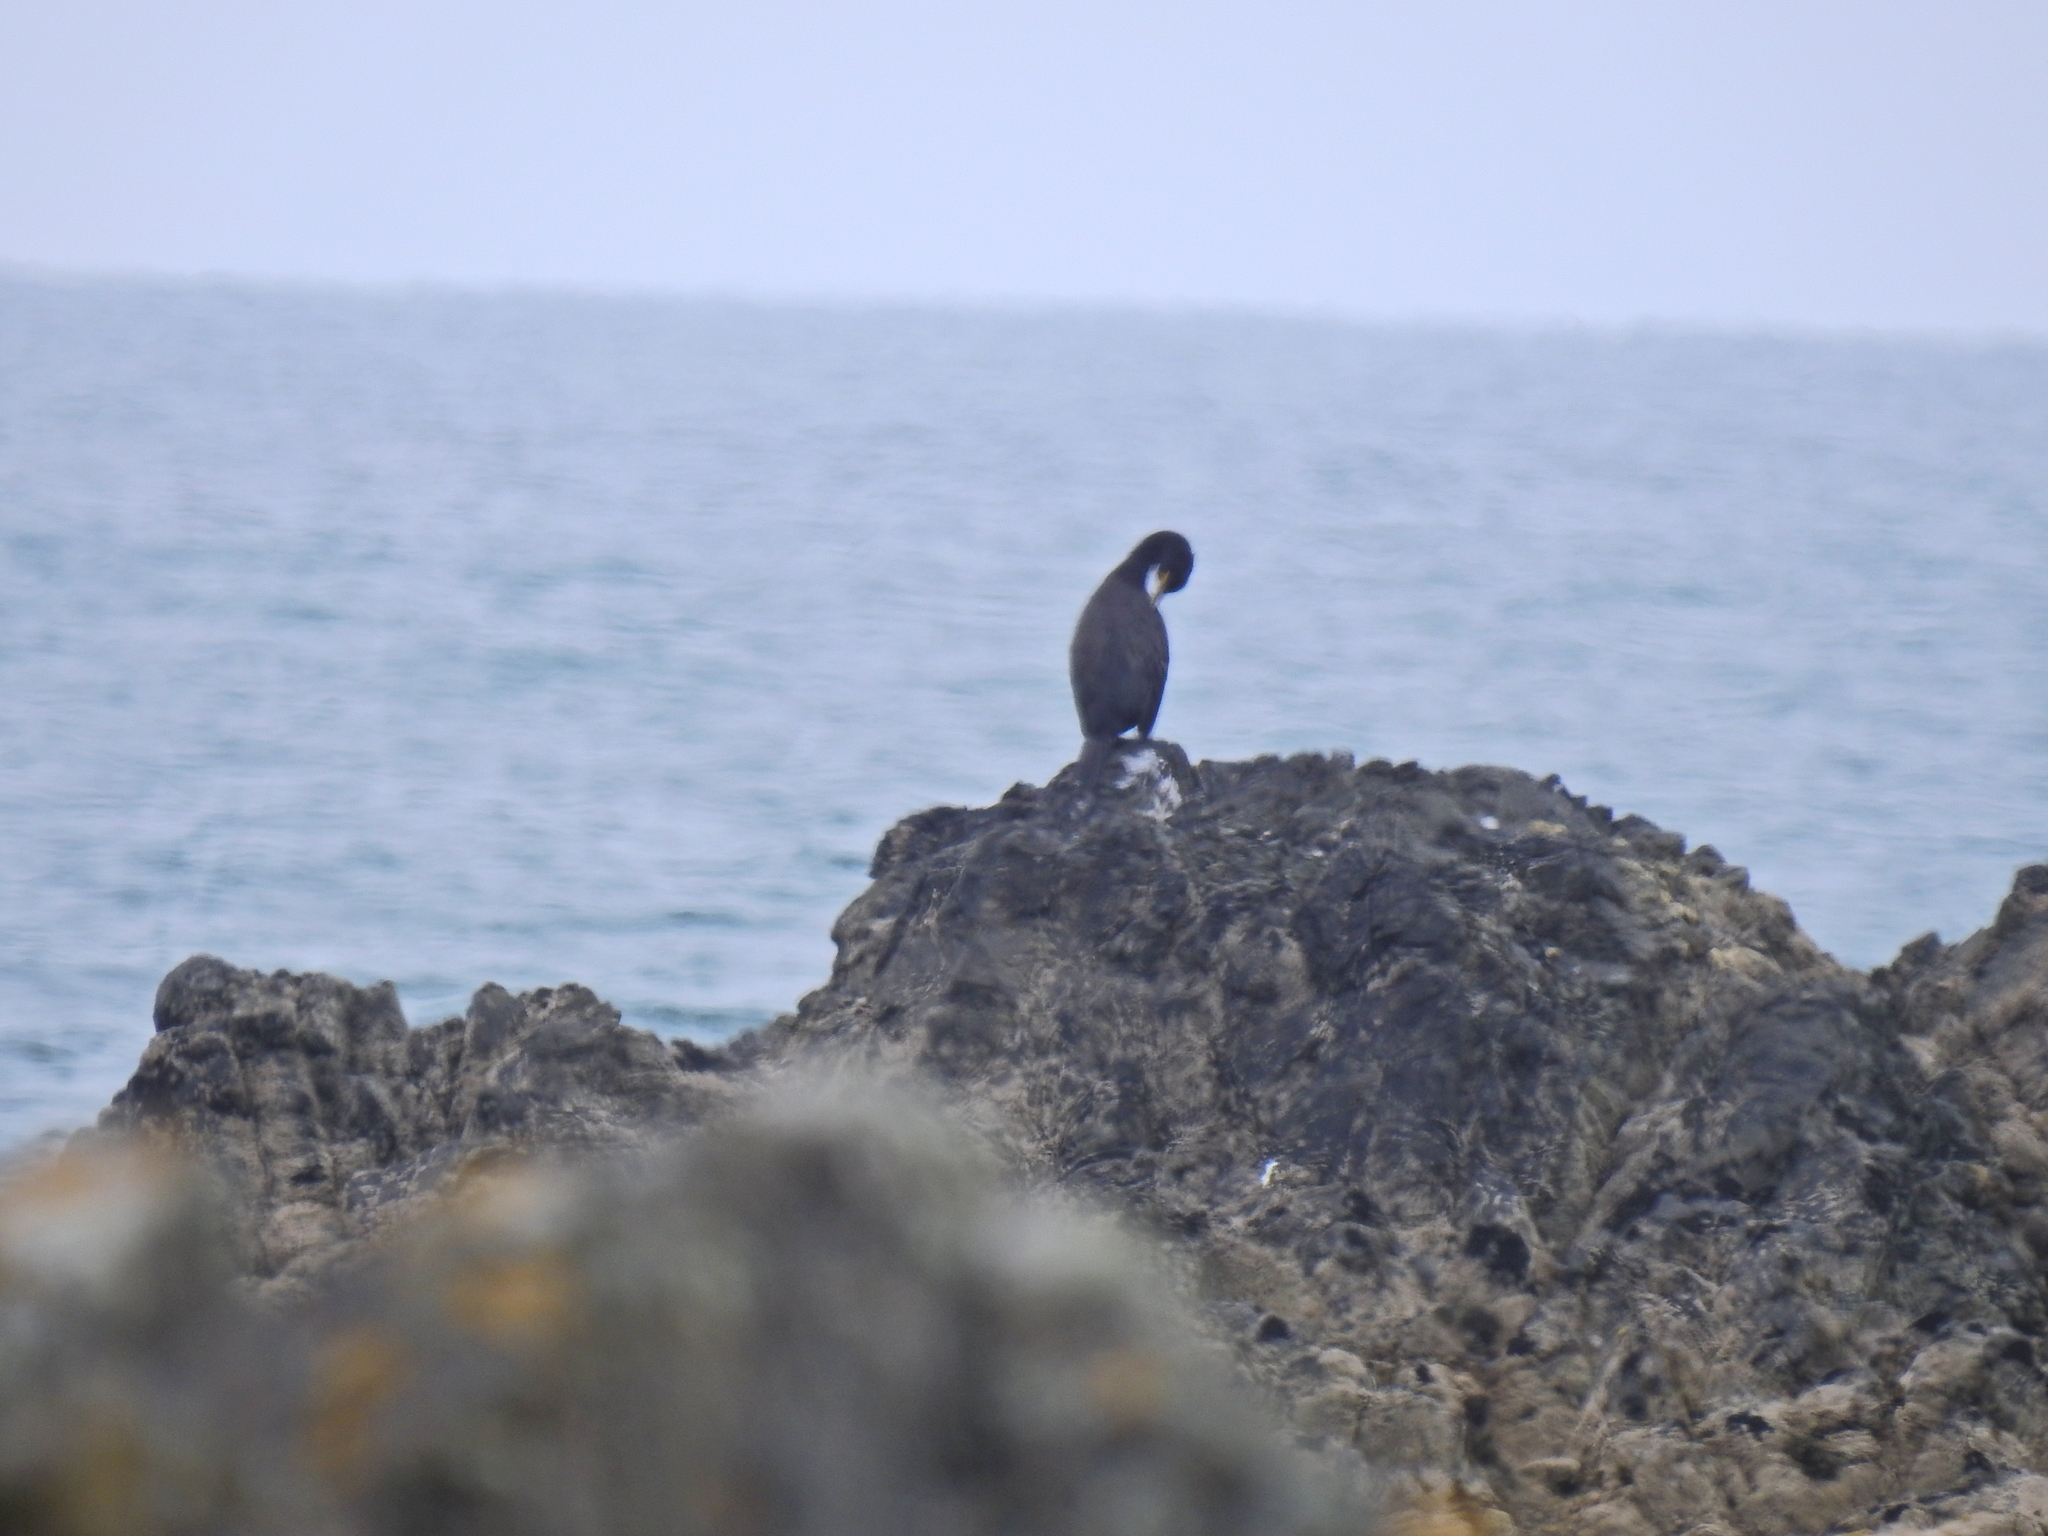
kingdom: Animalia
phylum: Chordata
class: Aves
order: Suliformes
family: Phalacrocoracidae
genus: Phalacrocorax
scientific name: Phalacrocorax aristotelis
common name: European shag
